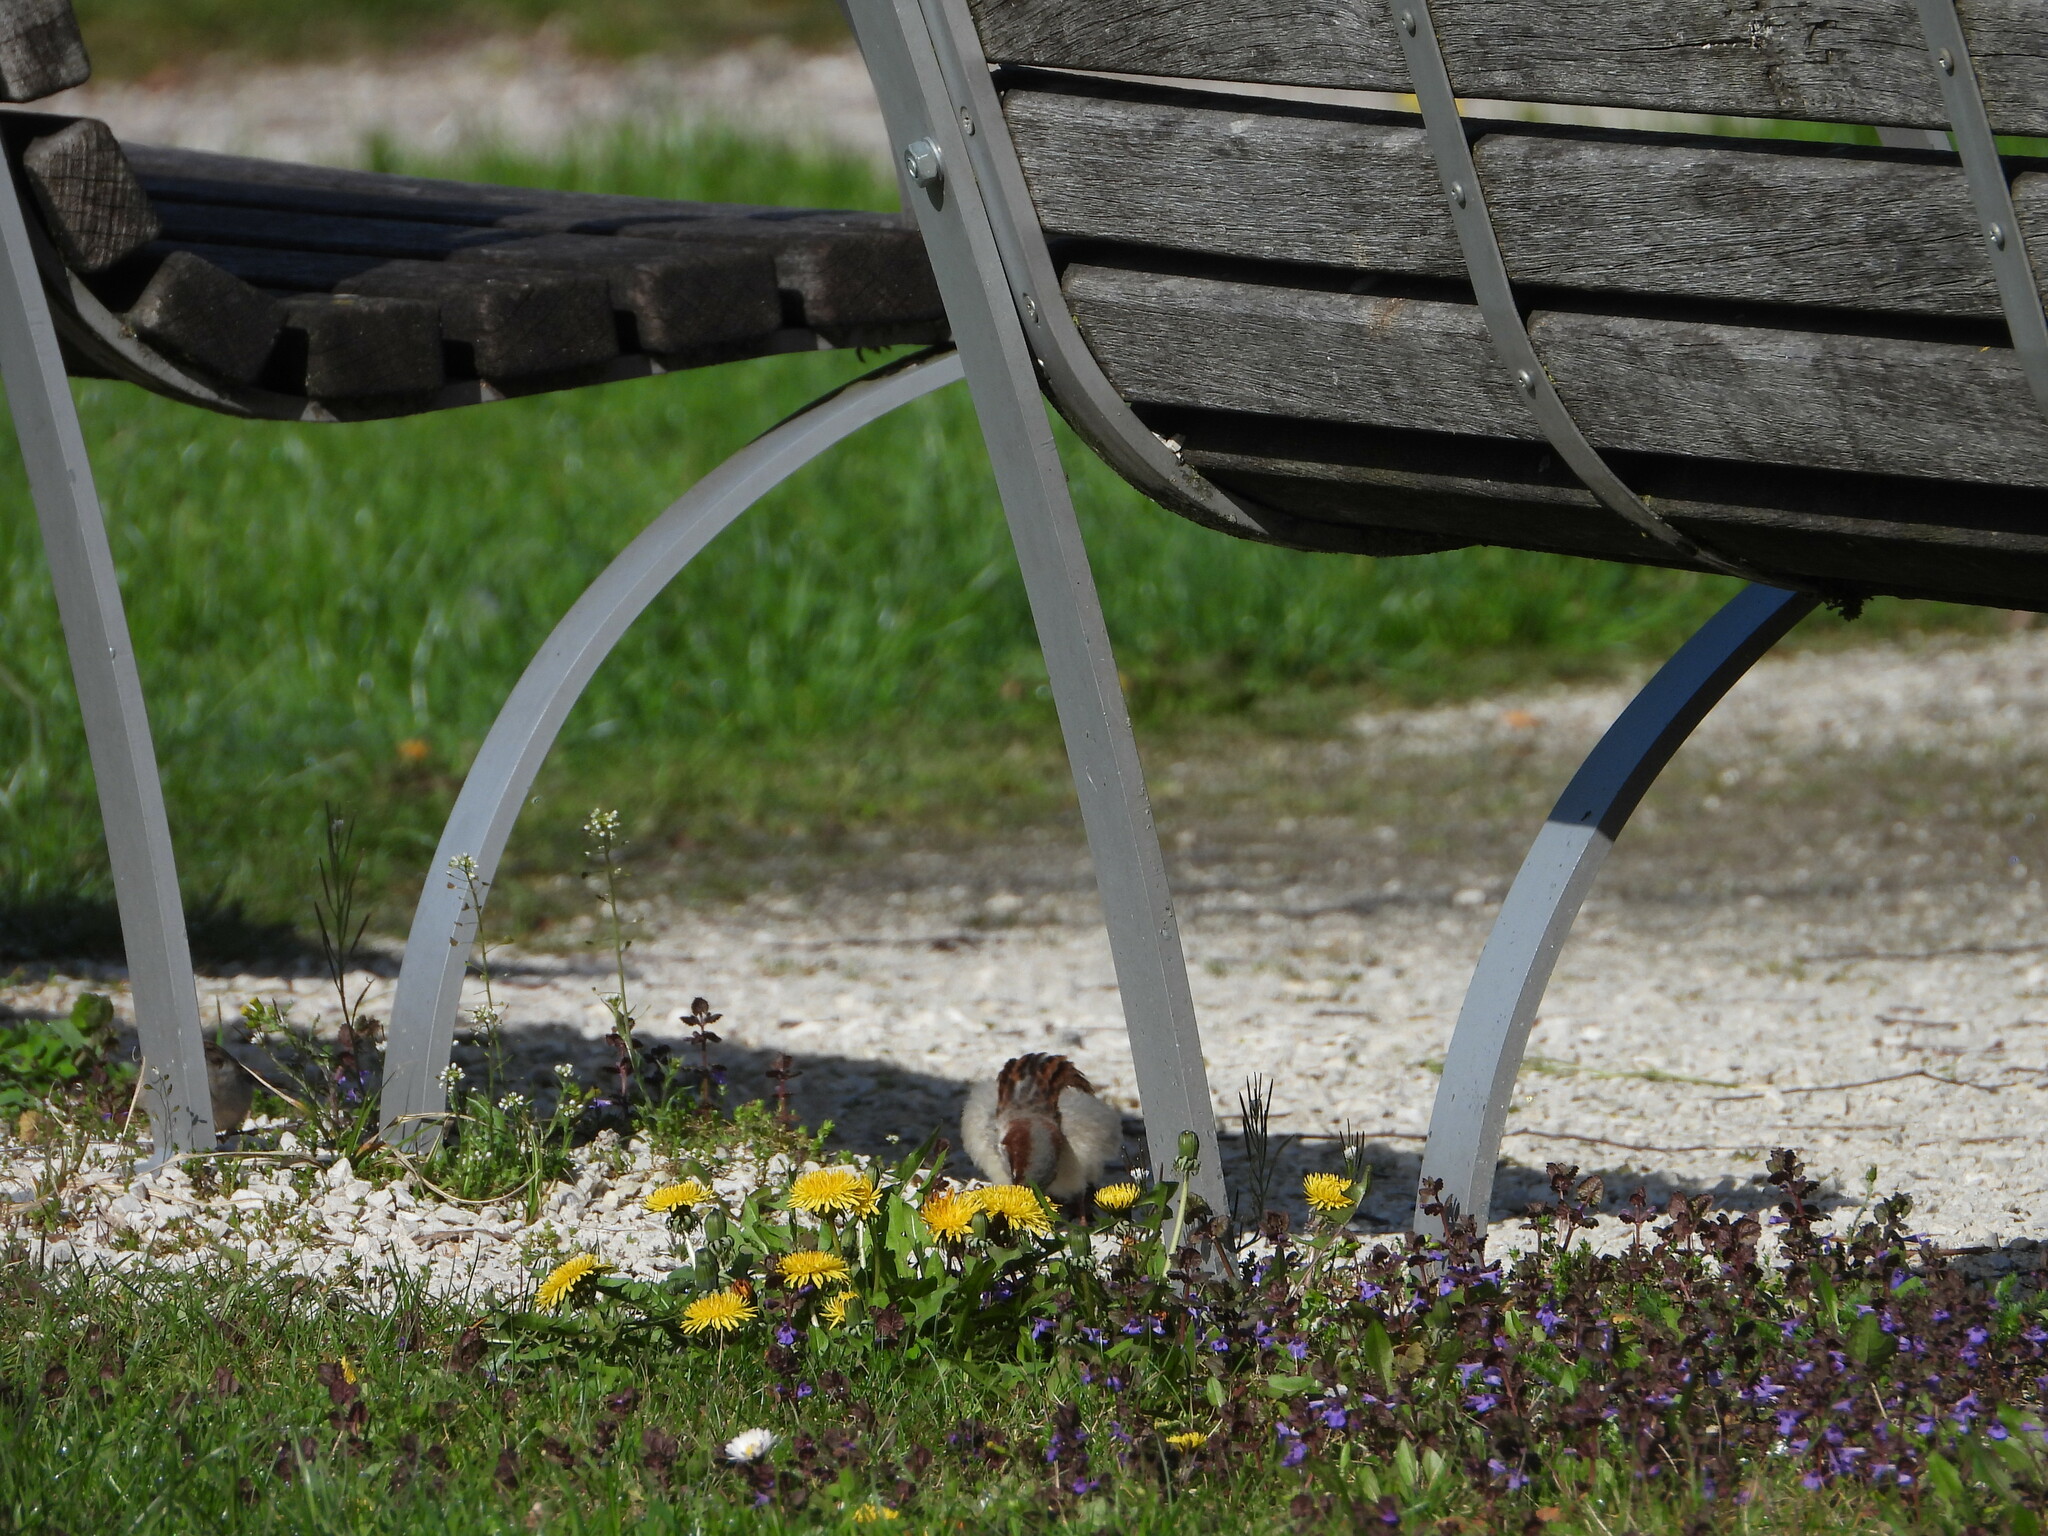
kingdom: Animalia
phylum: Chordata
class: Aves
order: Passeriformes
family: Passeridae
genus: Passer
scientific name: Passer domesticus
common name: House sparrow
